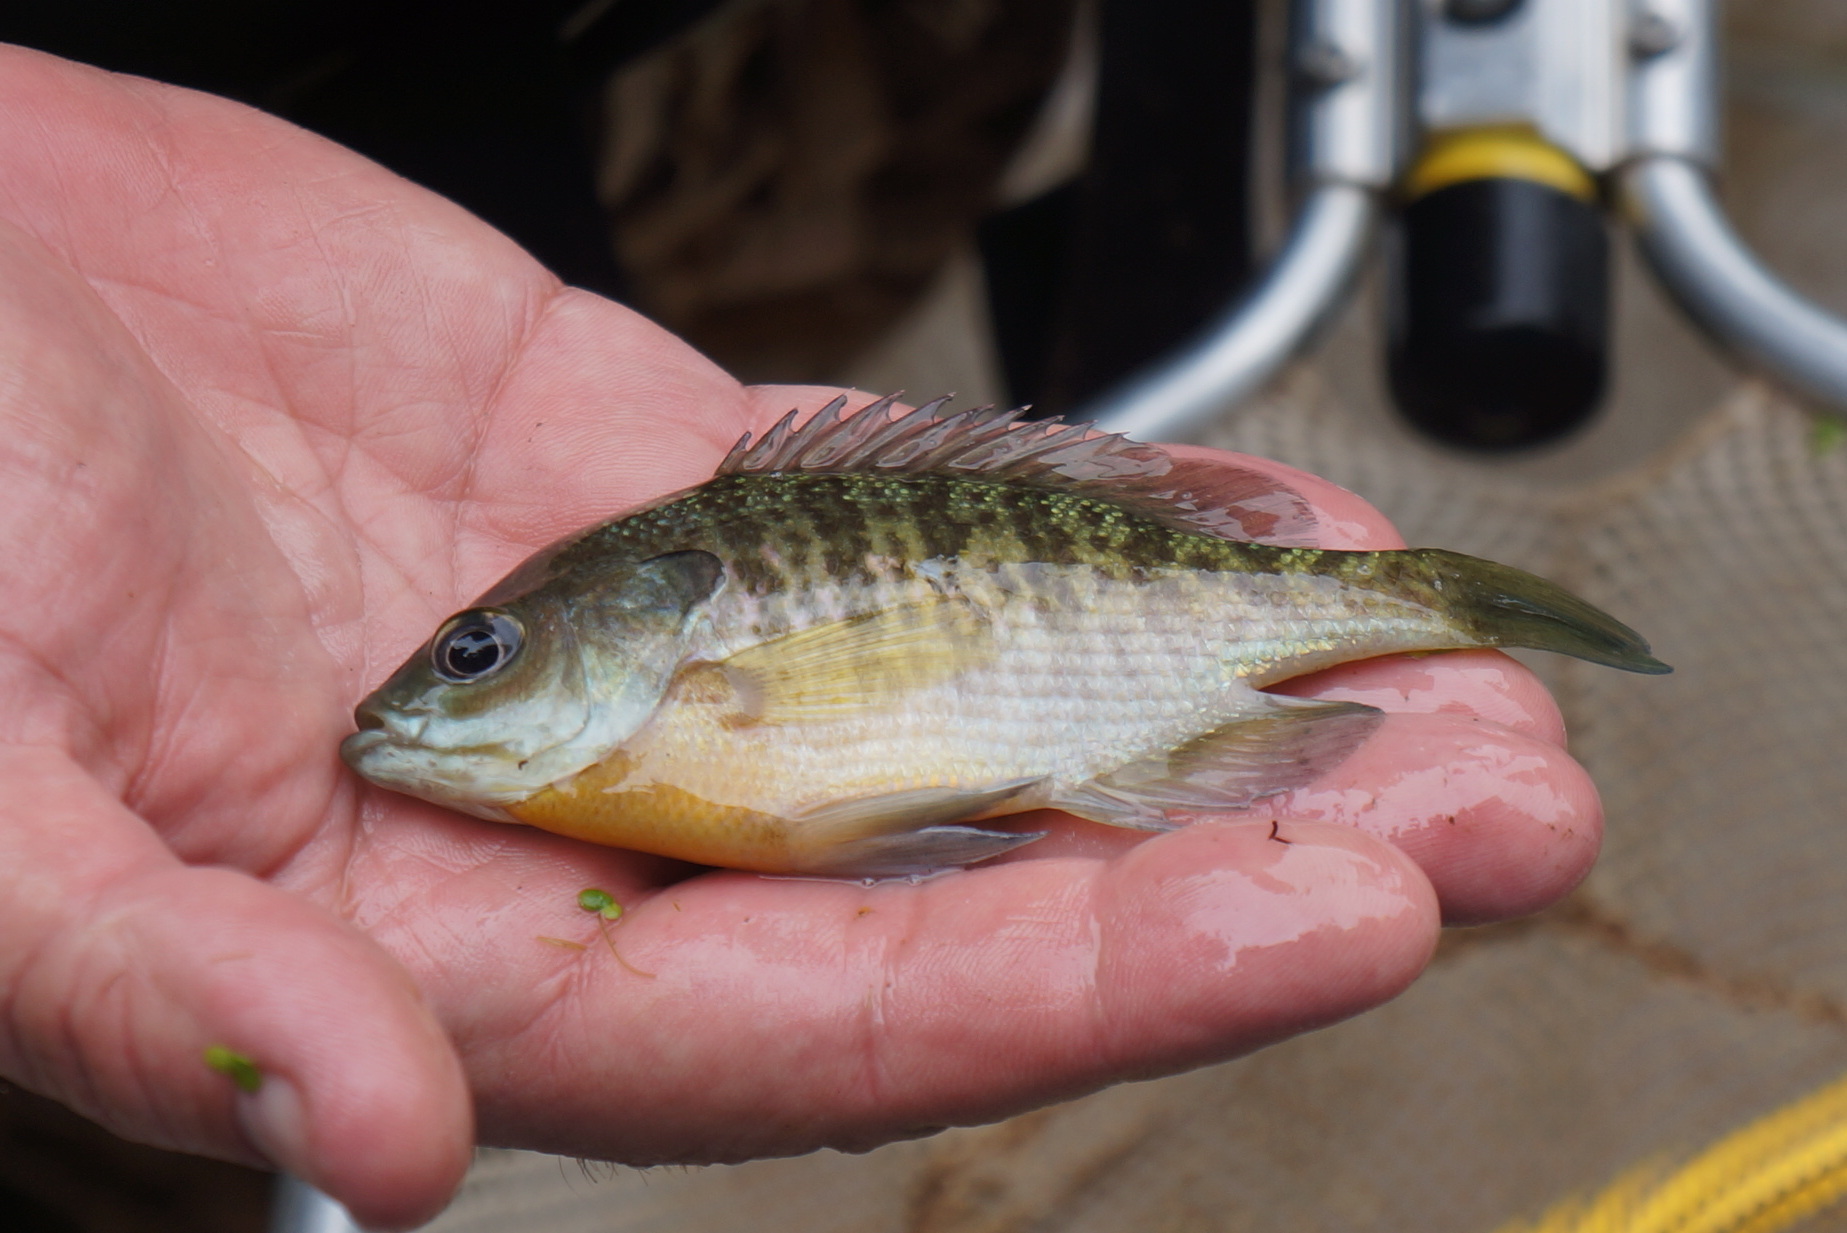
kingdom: Animalia
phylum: Chordata
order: Perciformes
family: Centrarchidae
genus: Lepomis
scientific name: Lepomis macrochirus
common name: Bluegill
